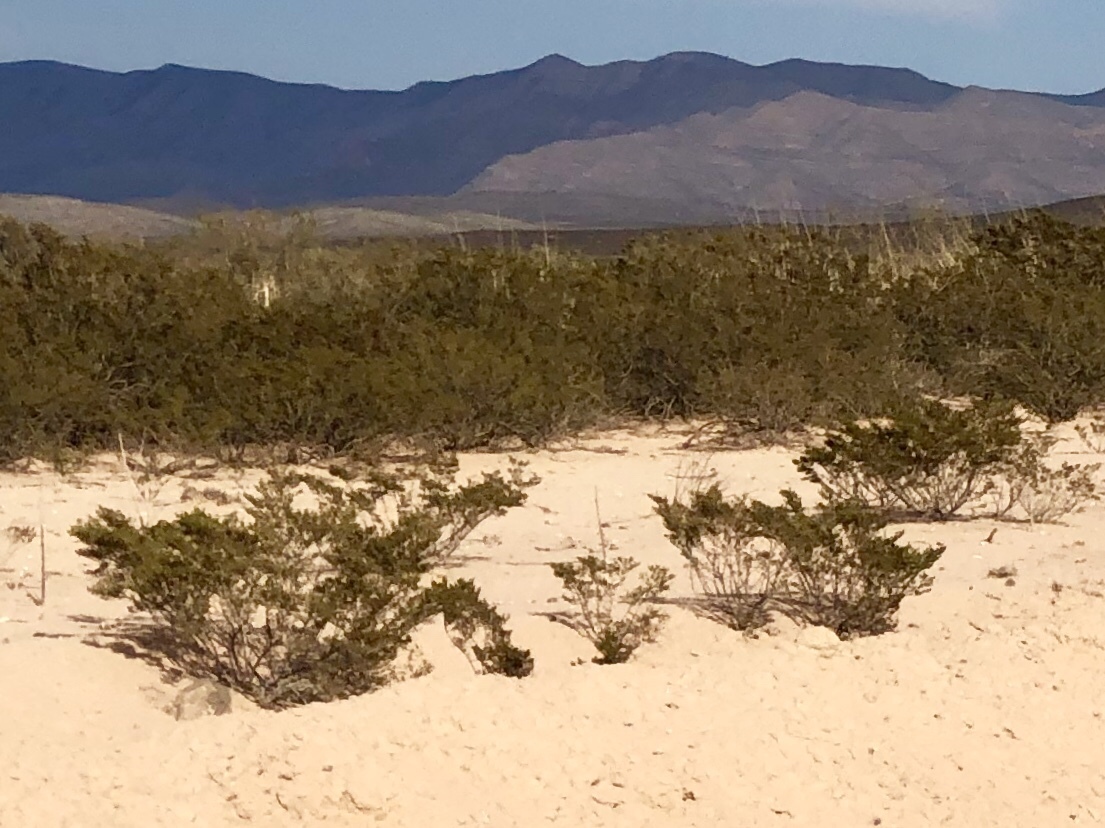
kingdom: Plantae
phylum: Tracheophyta
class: Magnoliopsida
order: Zygophyllales
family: Zygophyllaceae
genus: Larrea
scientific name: Larrea tridentata
